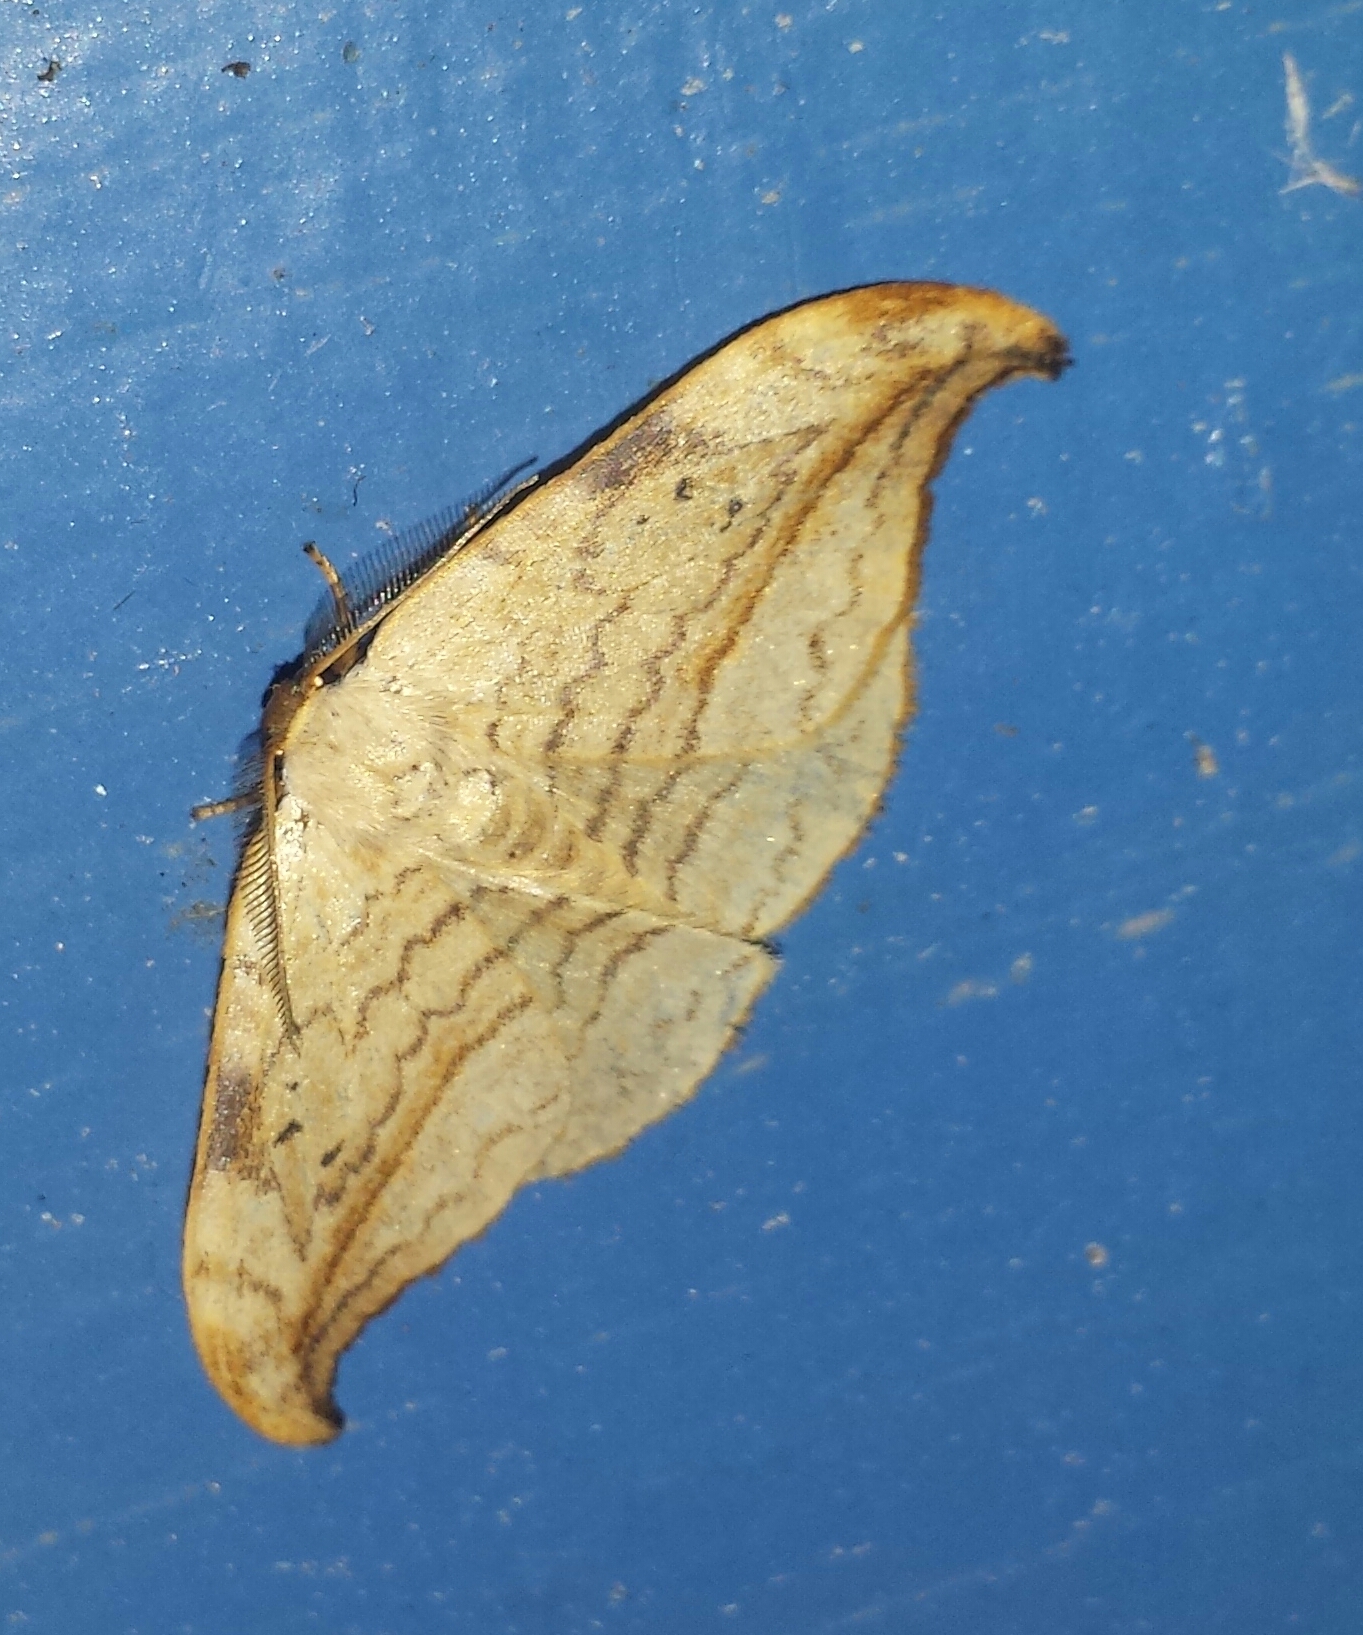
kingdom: Animalia
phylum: Arthropoda
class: Insecta
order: Lepidoptera
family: Drepanidae
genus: Drepana
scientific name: Drepana arcuata
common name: Arched hooktip moth
